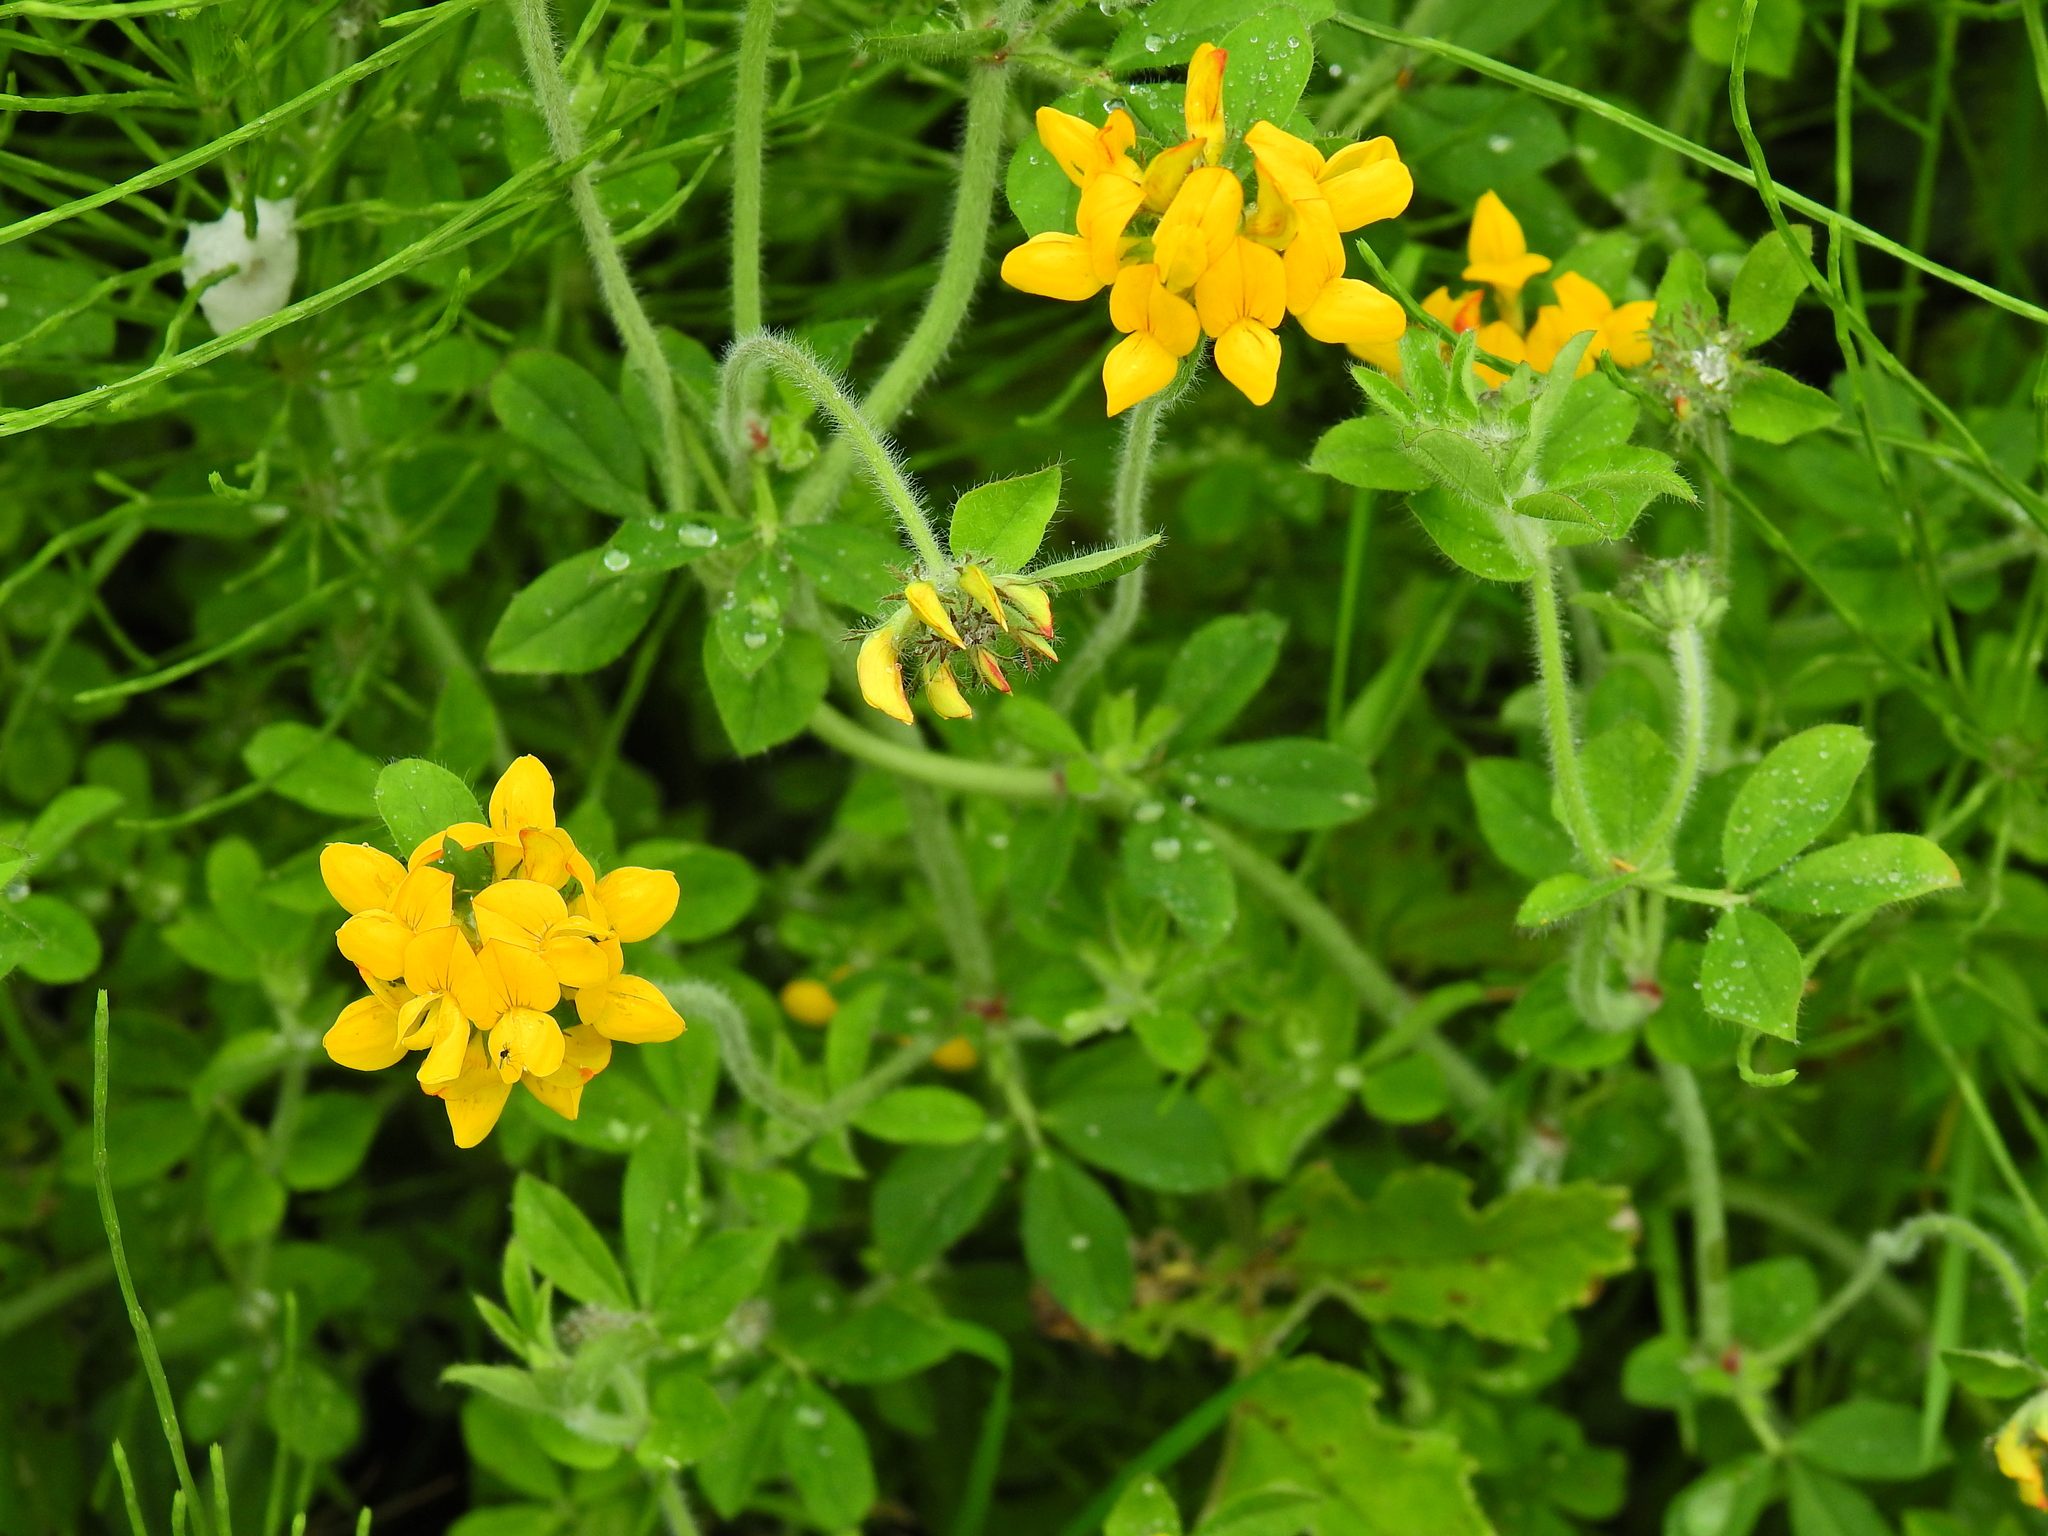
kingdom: Plantae
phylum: Tracheophyta
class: Magnoliopsida
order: Fabales
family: Fabaceae
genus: Lotus
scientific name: Lotus pedunculatus
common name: Greater birdsfoot-trefoil
